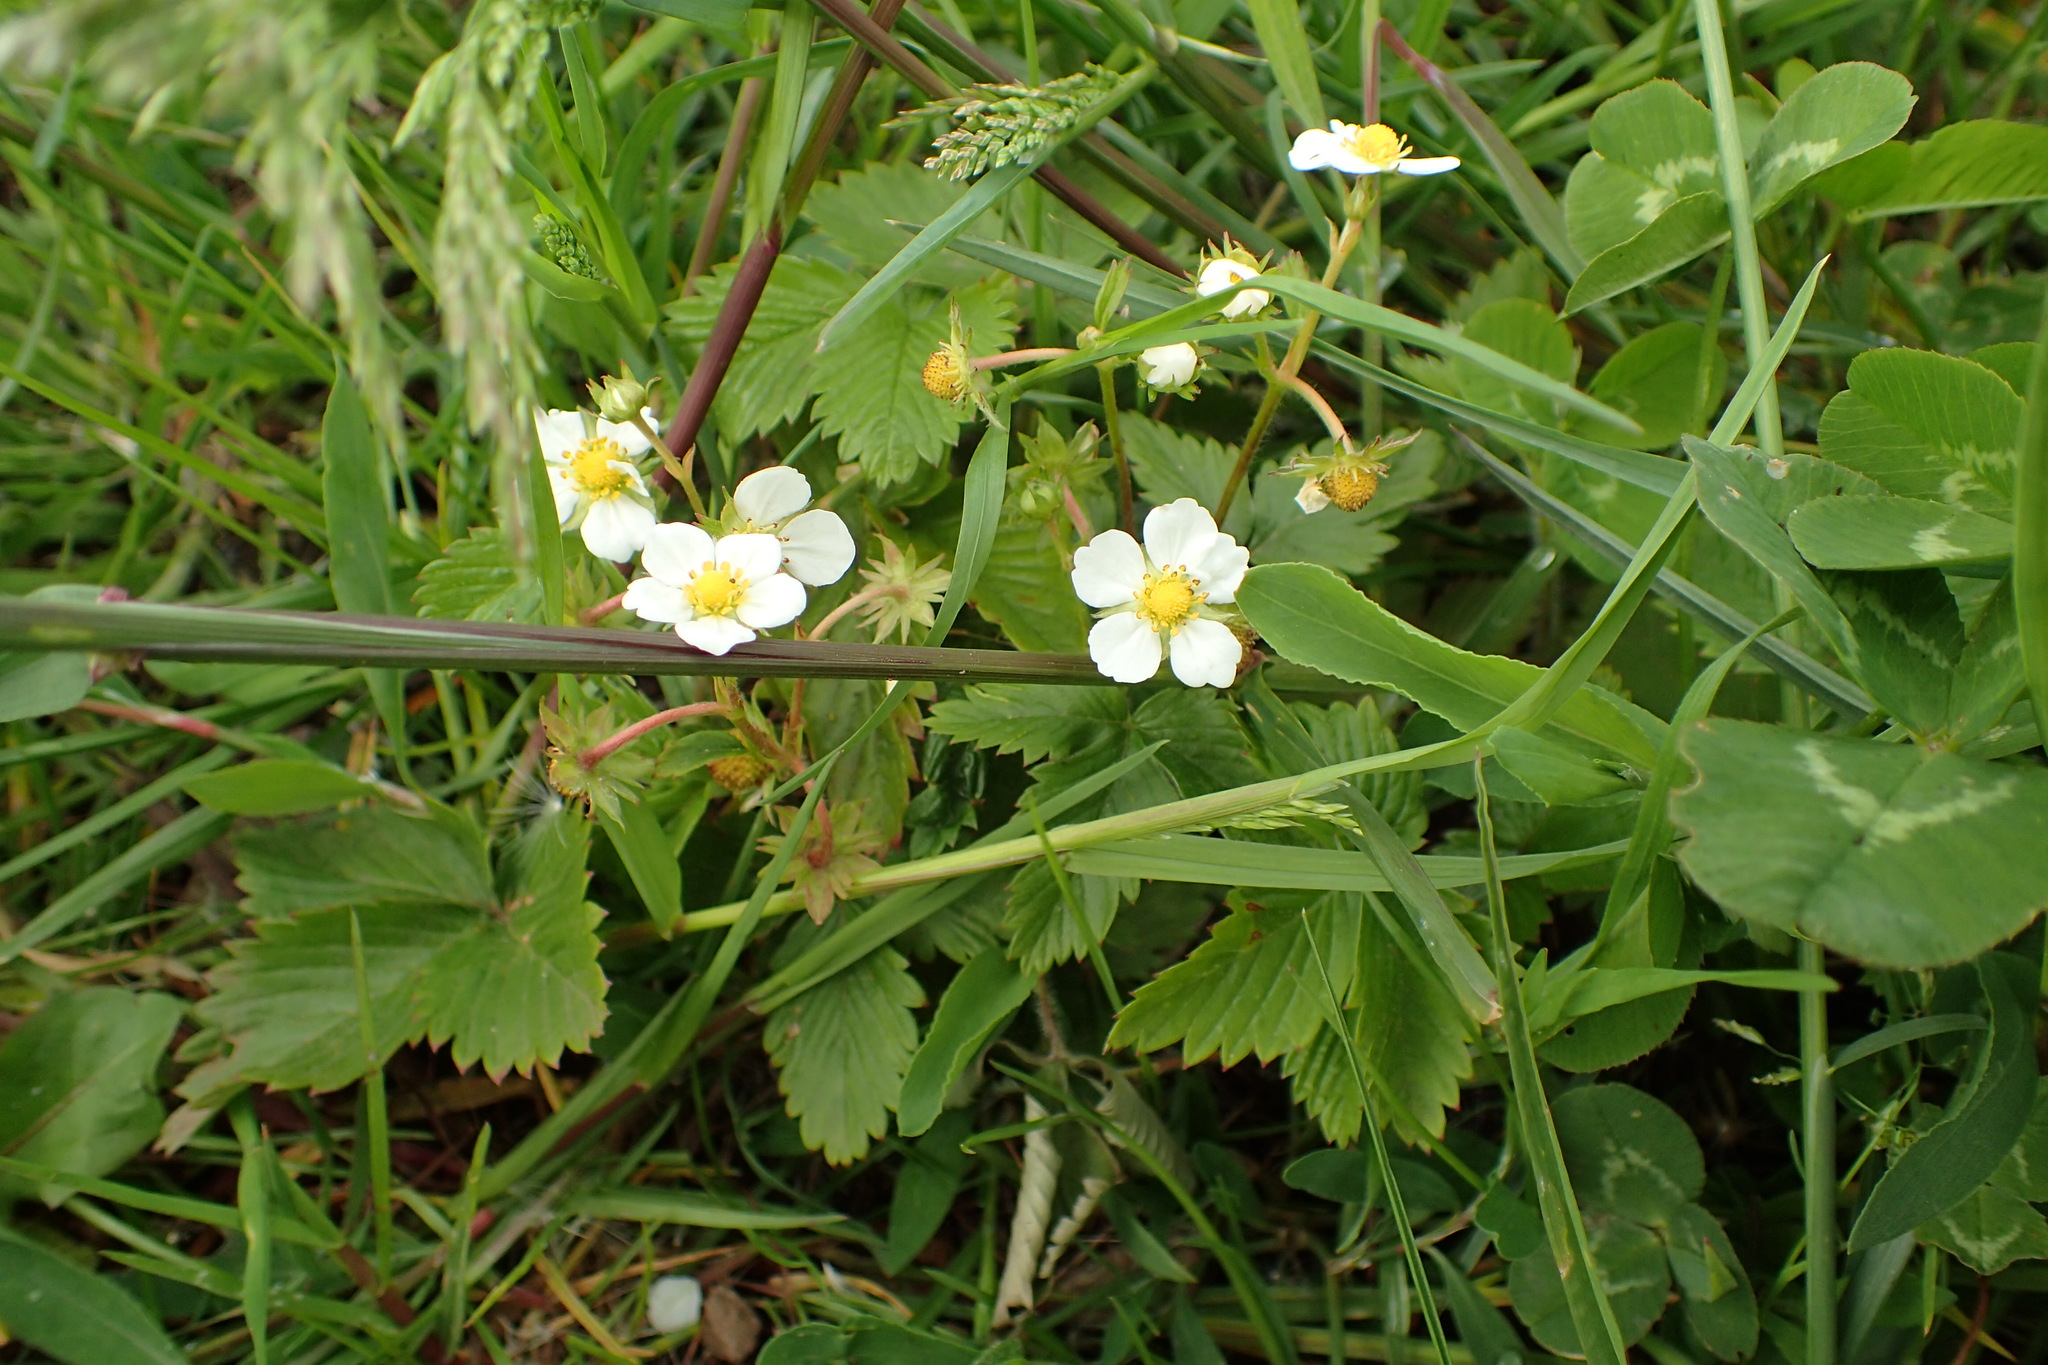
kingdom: Plantae
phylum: Tracheophyta
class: Magnoliopsida
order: Rosales
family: Rosaceae
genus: Fragaria
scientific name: Fragaria vesca
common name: Wild strawberry
